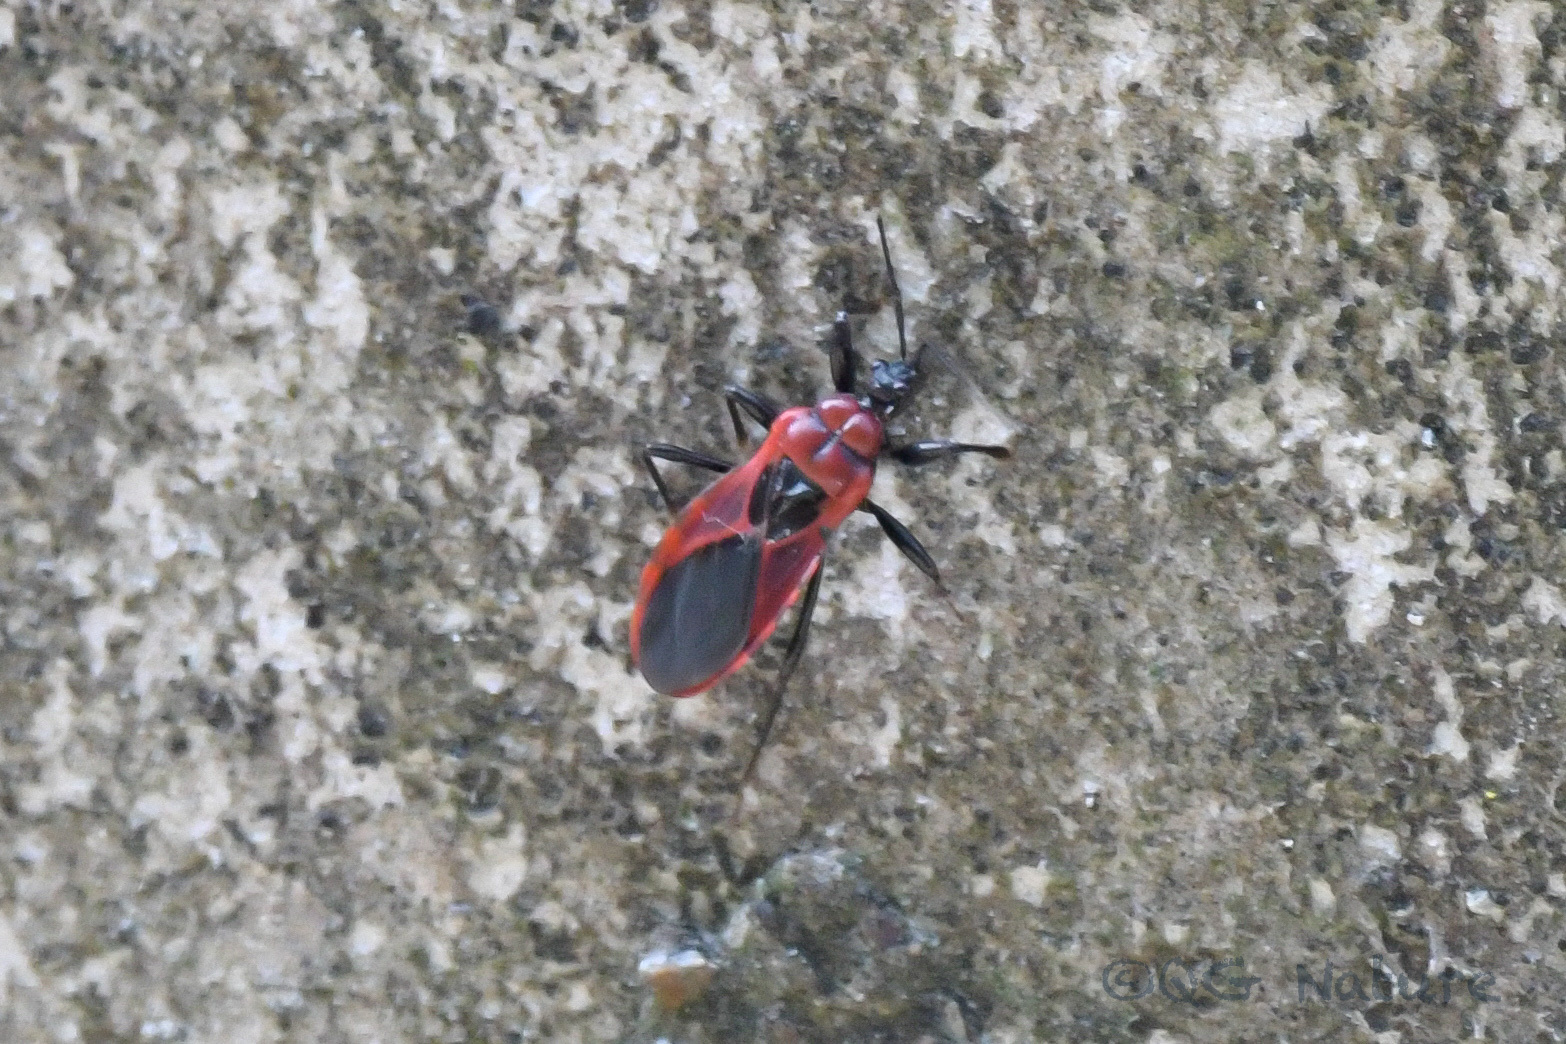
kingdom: Animalia
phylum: Arthropoda
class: Insecta
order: Hemiptera
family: Reduviidae
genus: Haematoloecha
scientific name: Haematoloecha nigrorufa
